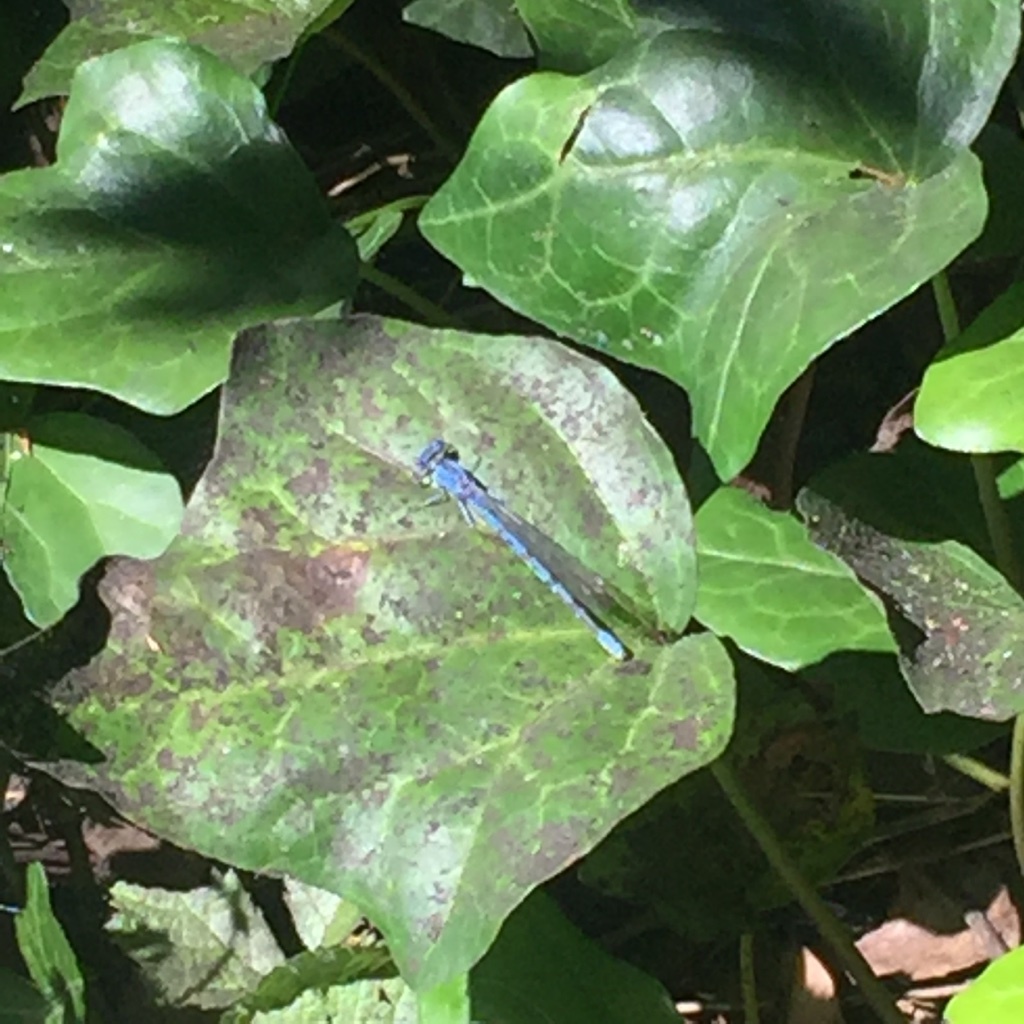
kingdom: Animalia
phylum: Arthropoda
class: Insecta
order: Odonata
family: Coenagrionidae
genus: Argia
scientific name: Argia vivida
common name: Vivid dancer
